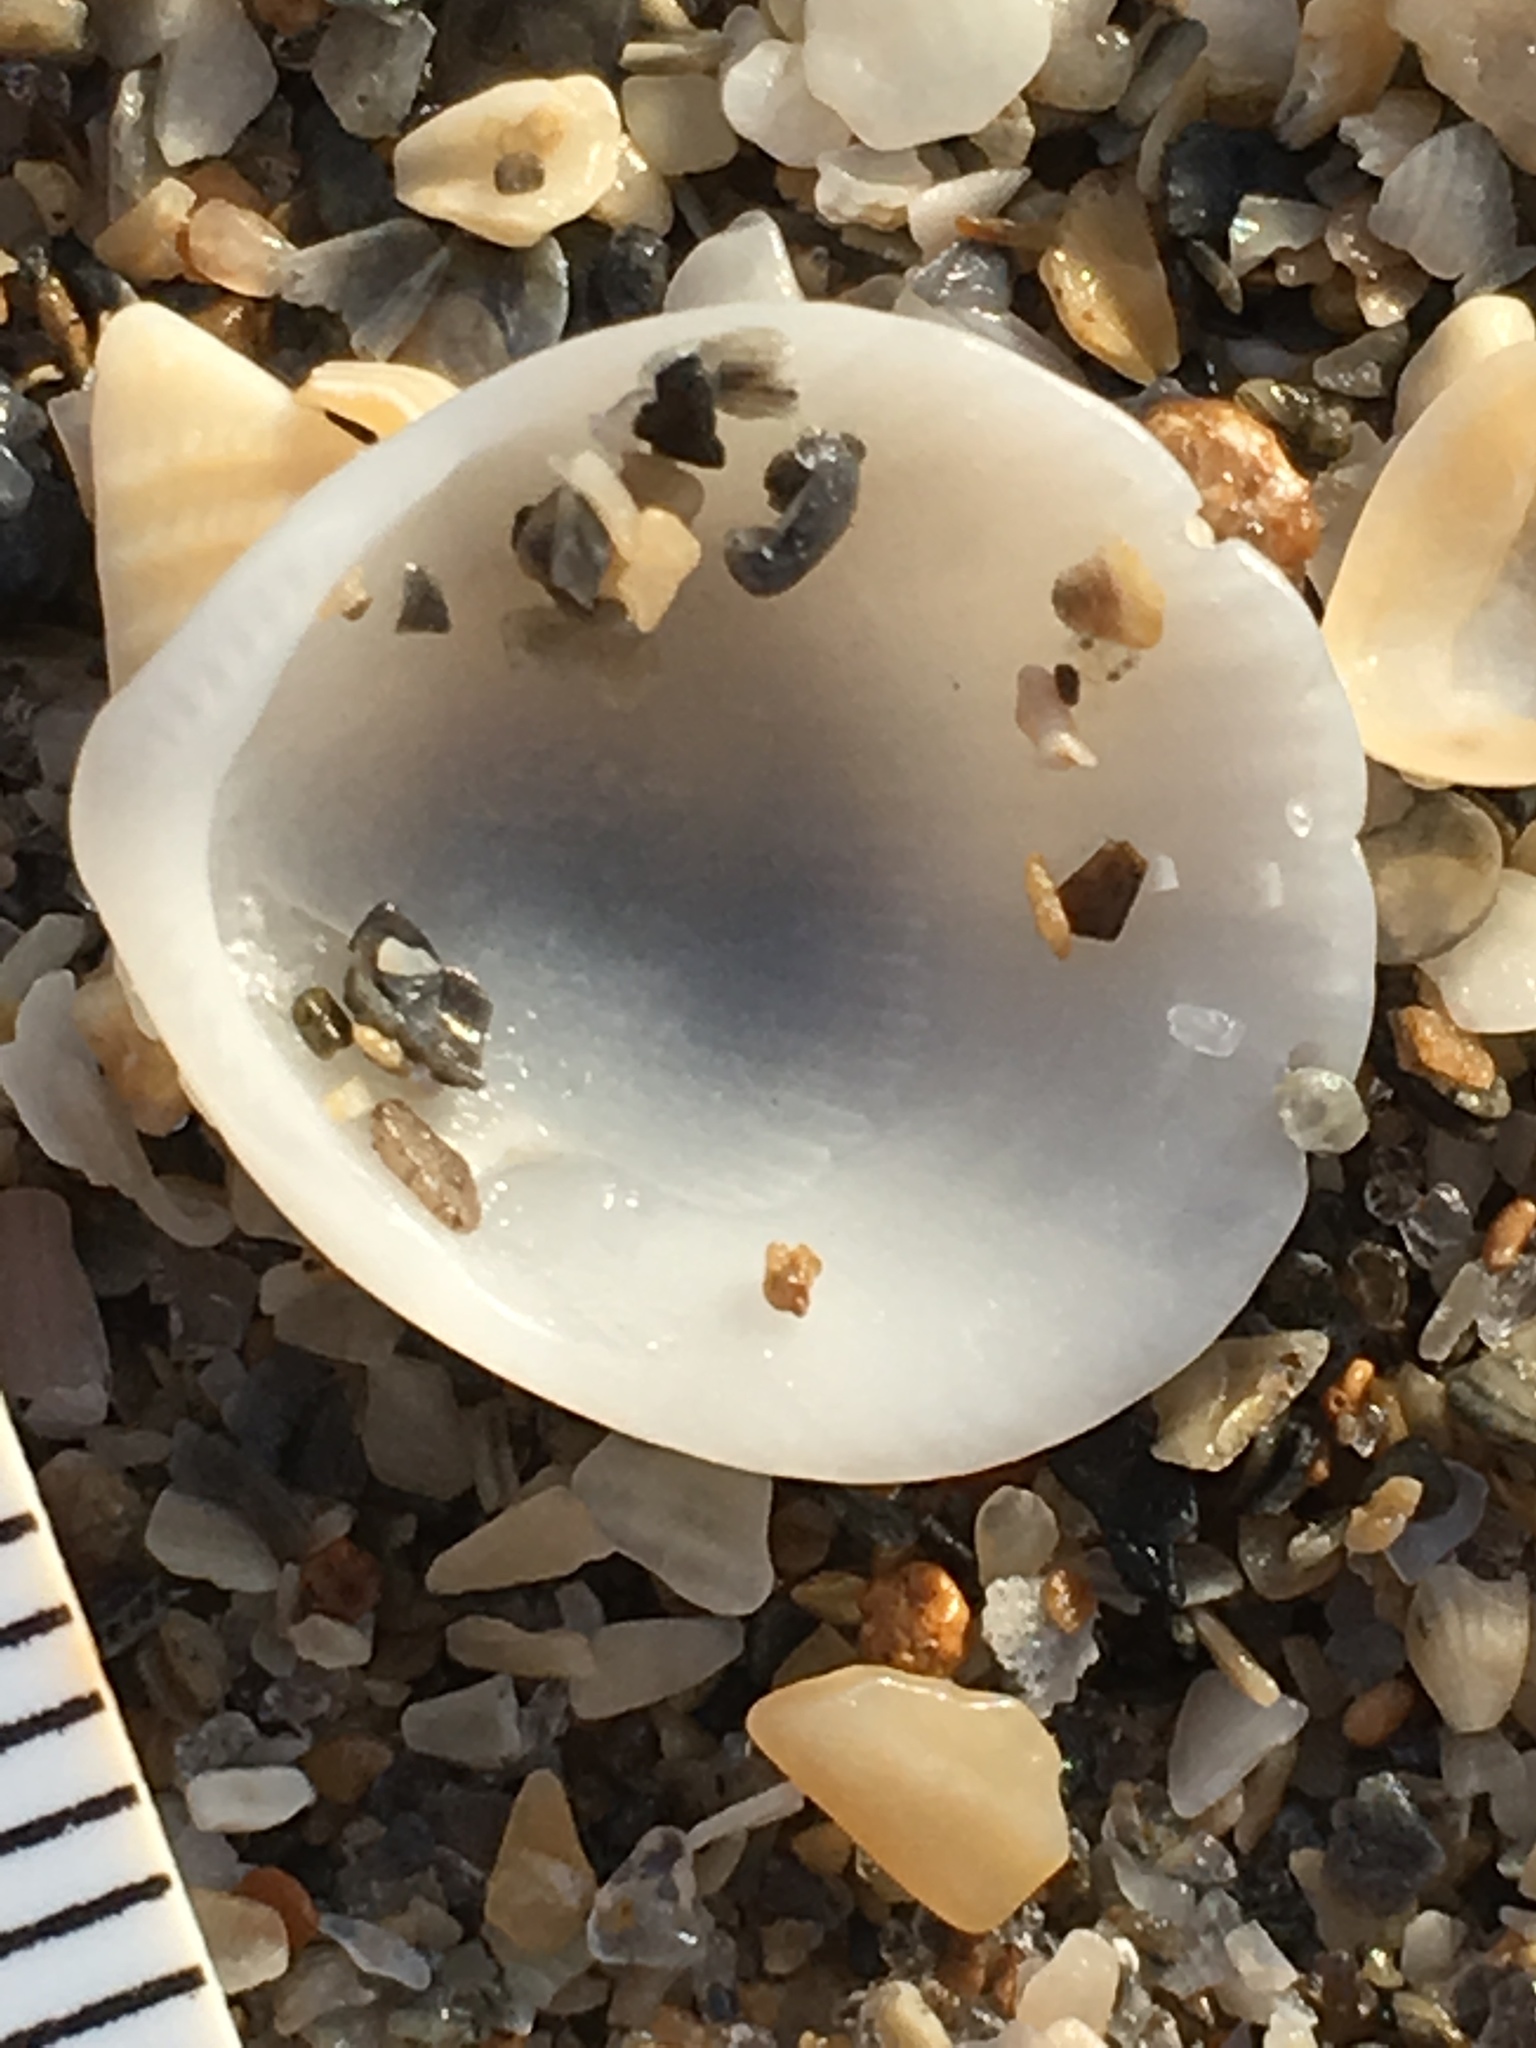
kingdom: Animalia
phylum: Mollusca
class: Bivalvia
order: Arcida
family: Glycymerididae
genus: Tucetona
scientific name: Tucetona pectinata
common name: Comb bittersweet
